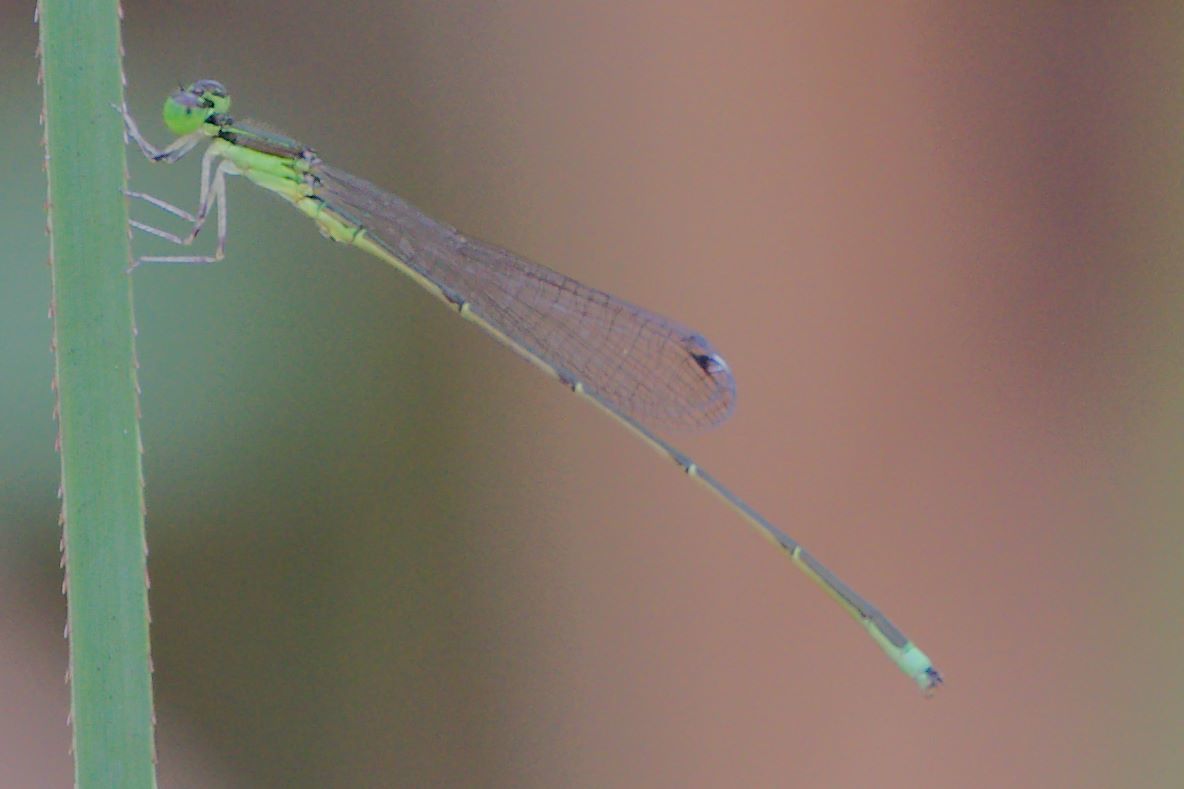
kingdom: Animalia
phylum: Arthropoda
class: Insecta
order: Odonata
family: Coenagrionidae
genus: Ischnura
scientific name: Ischnura prognata
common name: Furtive forktail
